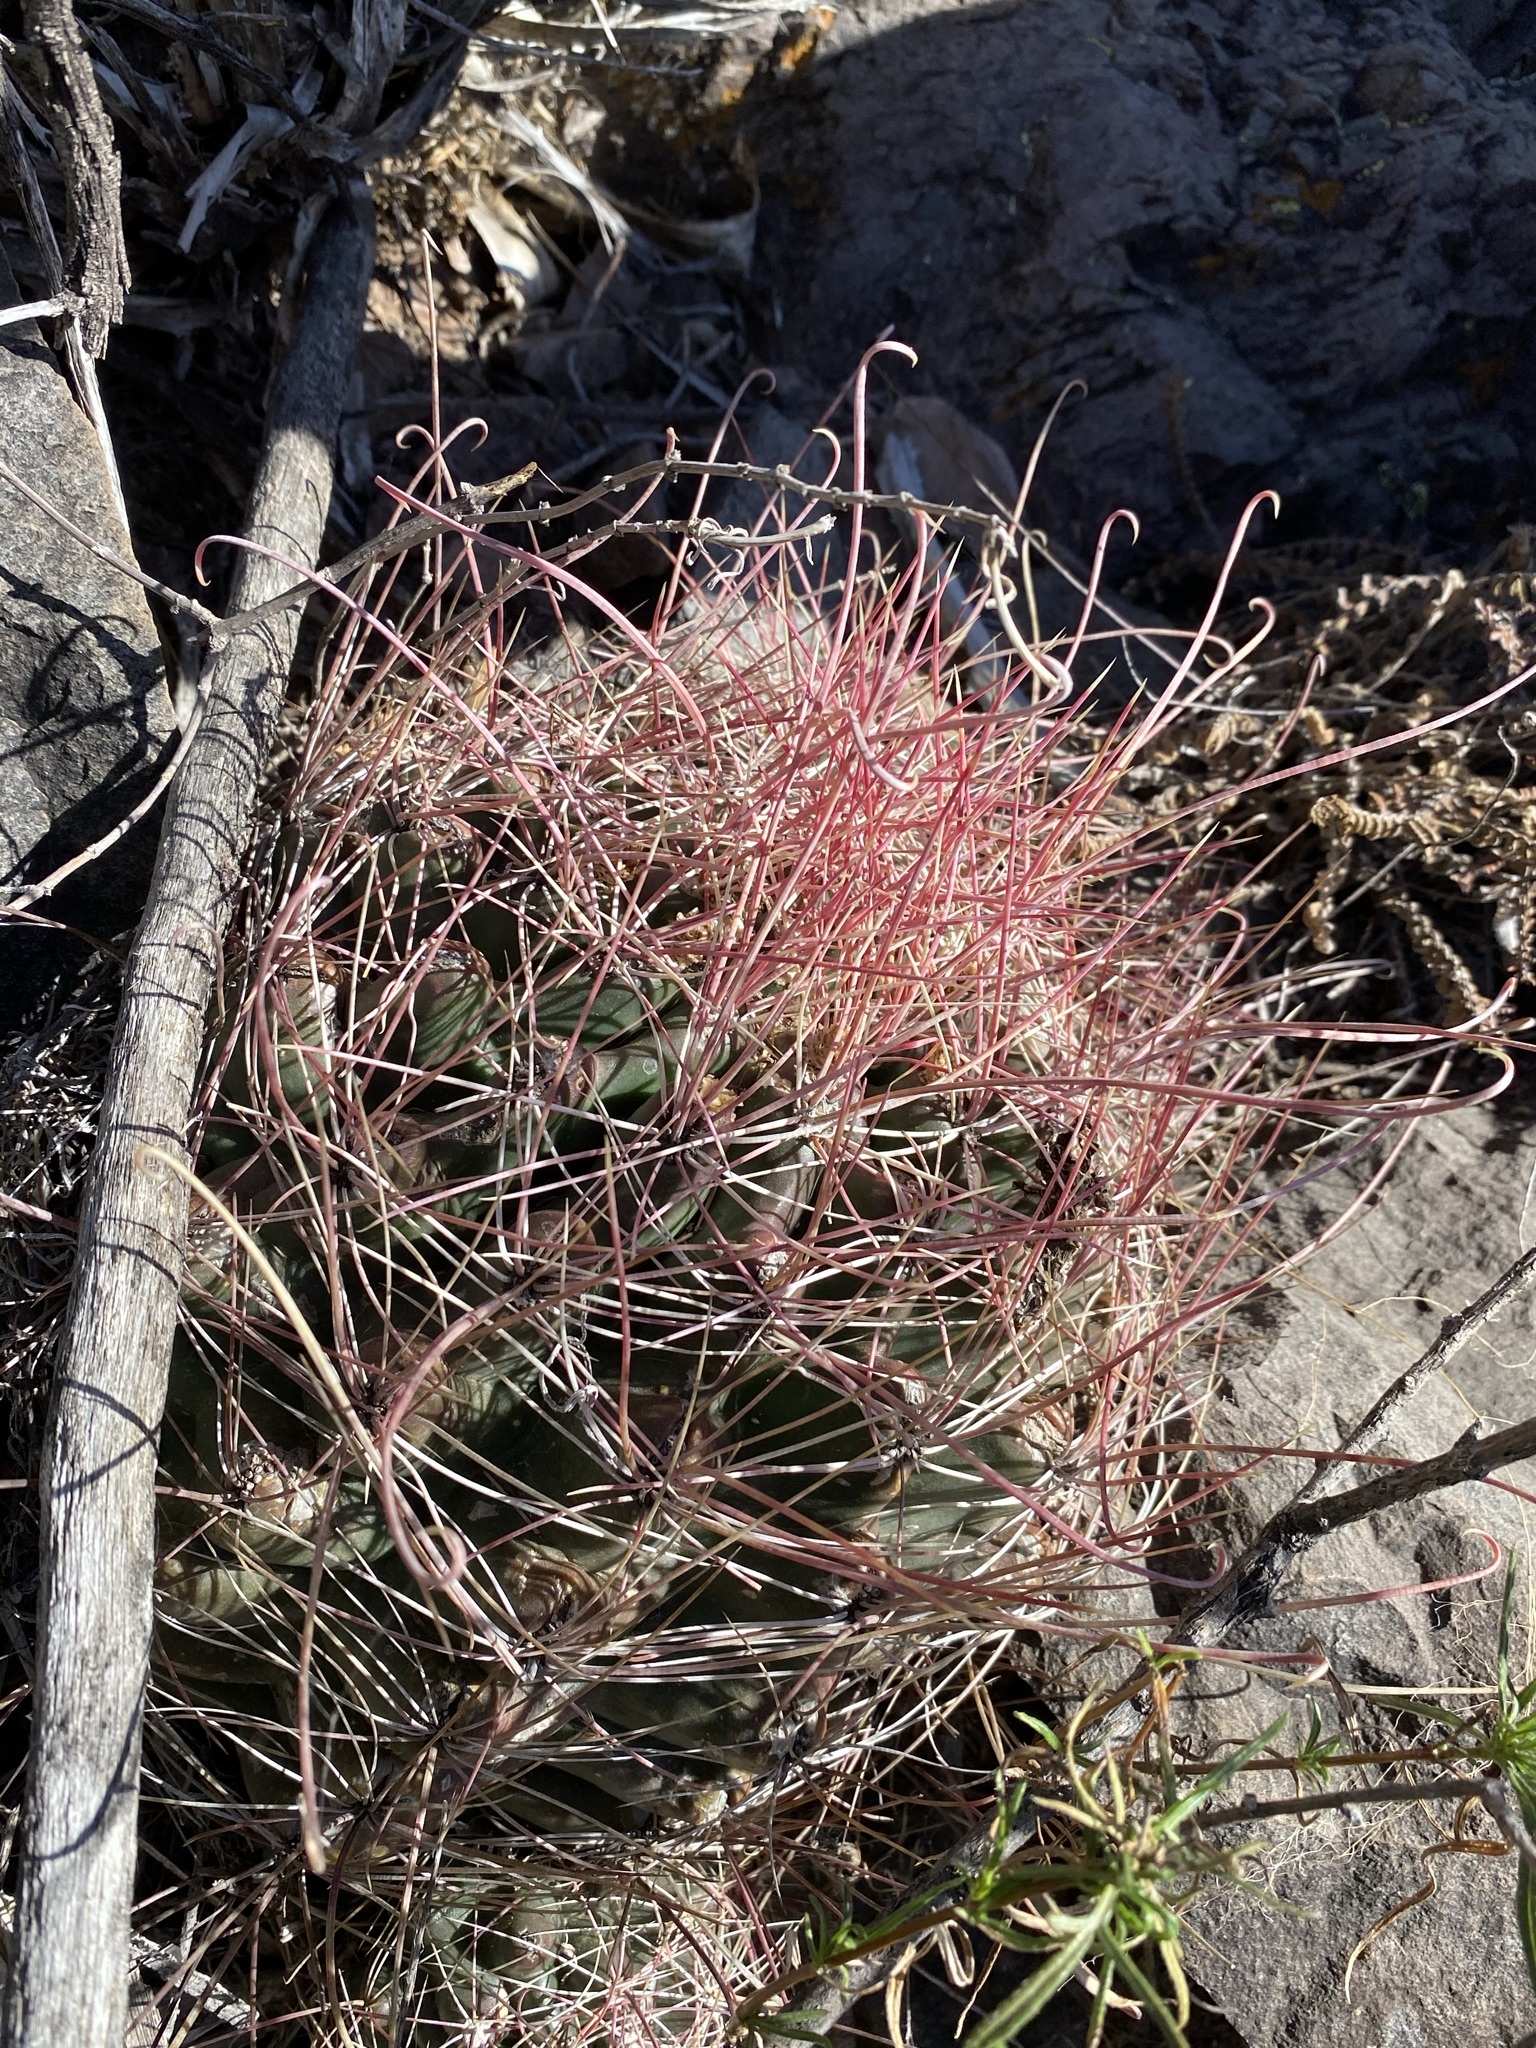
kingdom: Plantae
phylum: Tracheophyta
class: Magnoliopsida
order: Caryophyllales
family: Cactaceae
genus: Bisnaga
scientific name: Bisnaga hamatacantha
